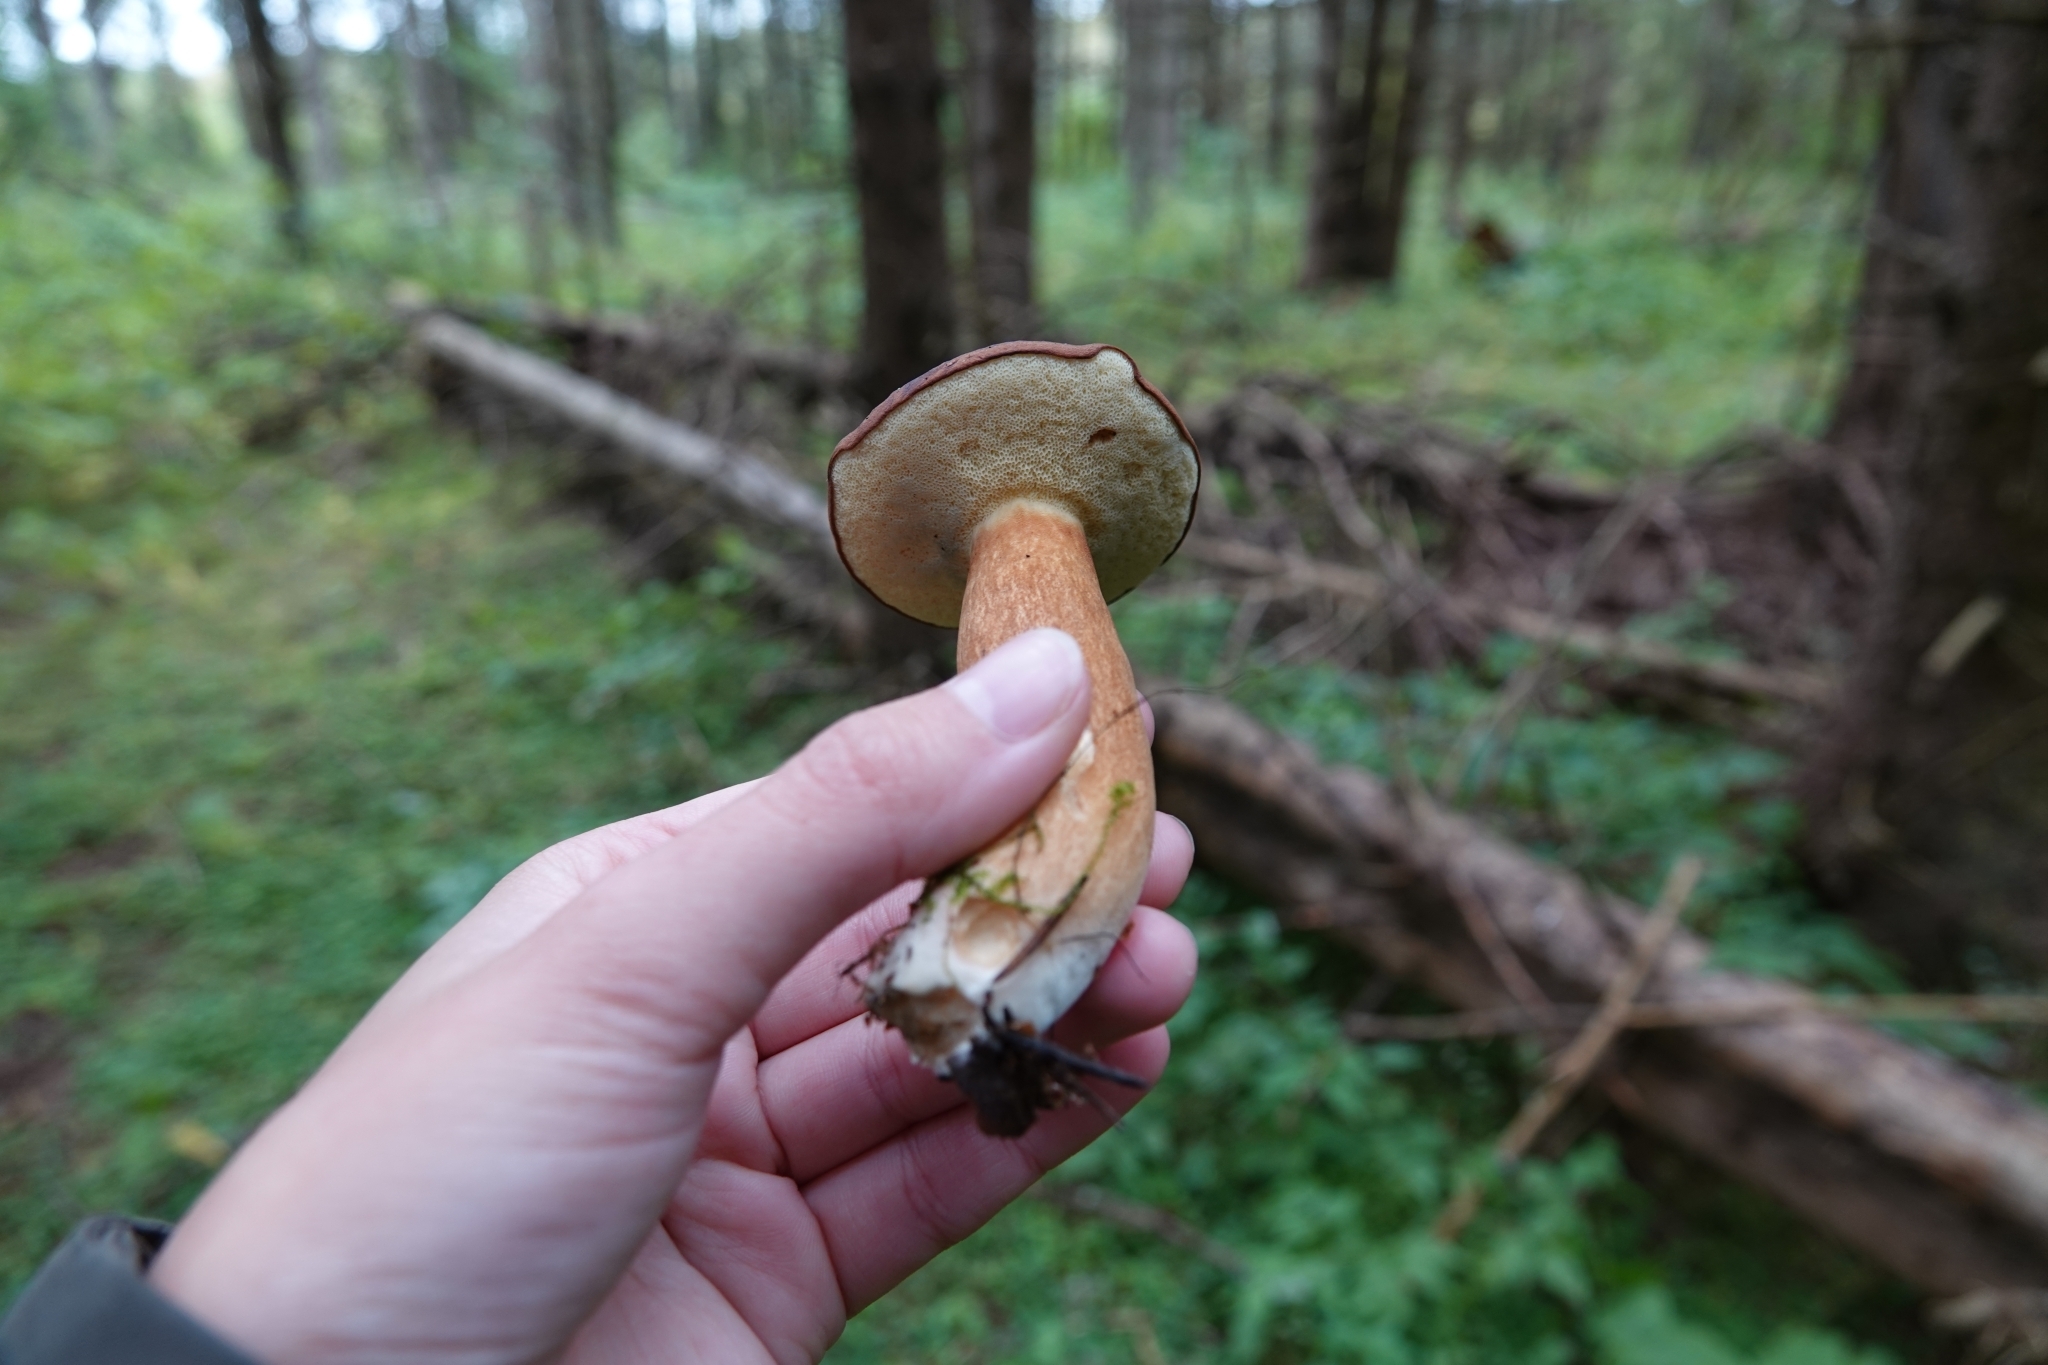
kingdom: Fungi
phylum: Basidiomycota
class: Agaricomycetes
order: Boletales
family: Boletaceae
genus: Imleria
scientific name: Imleria badia
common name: Bay bolete
